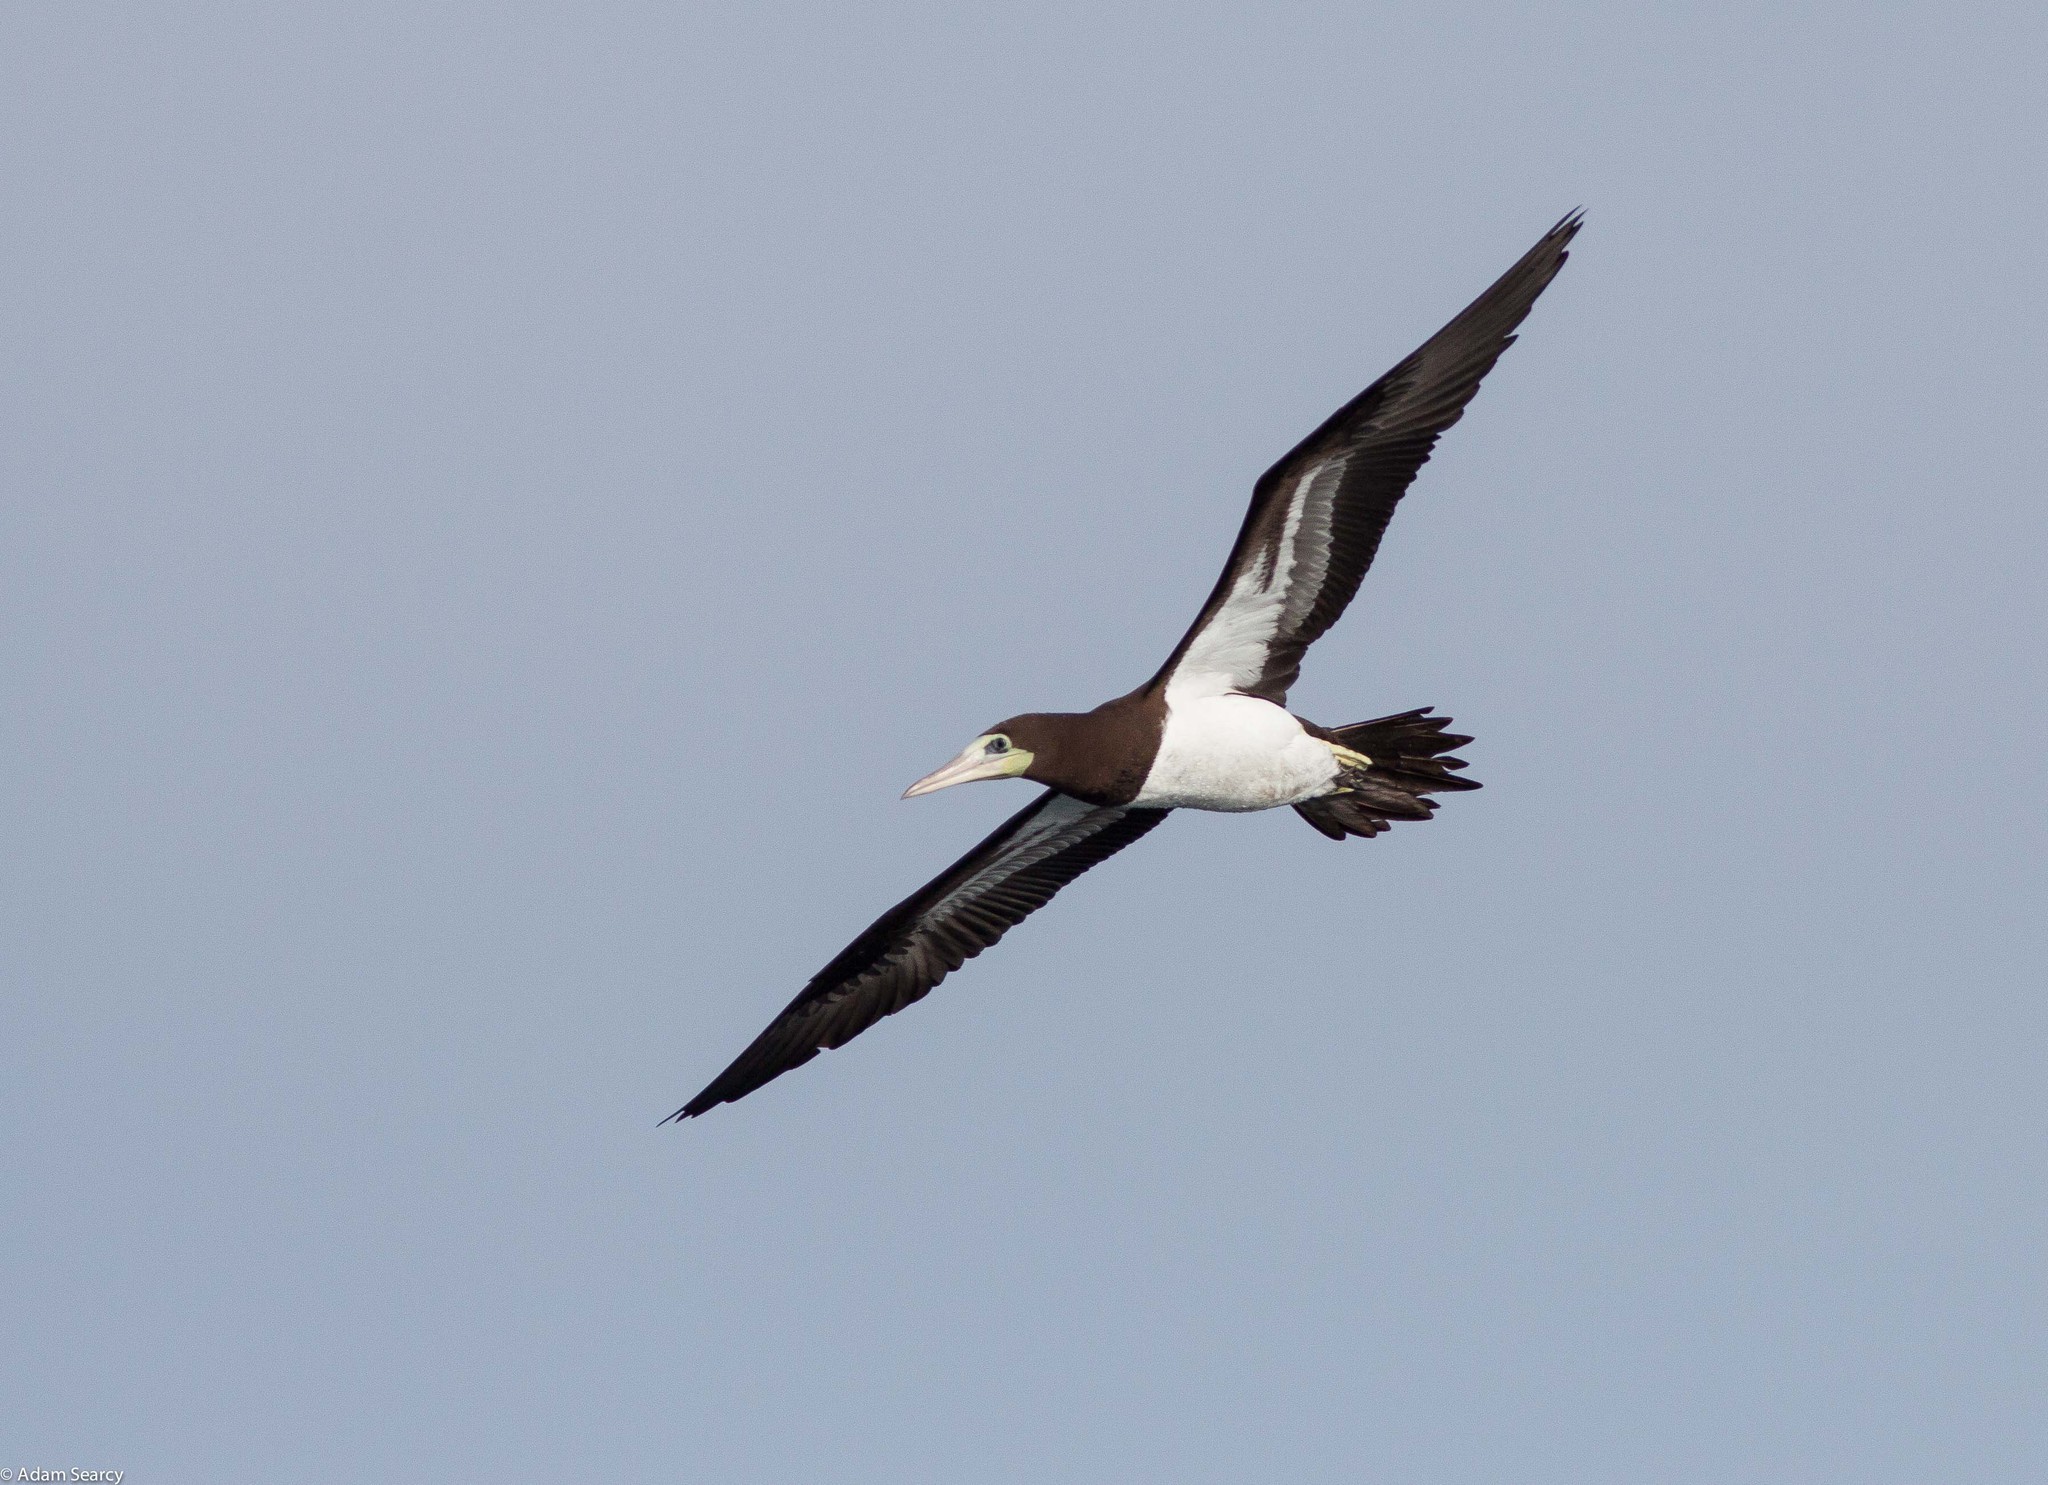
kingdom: Animalia
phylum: Chordata
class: Aves
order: Suliformes
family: Sulidae
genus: Sula
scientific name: Sula leucogaster
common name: Brown booby
